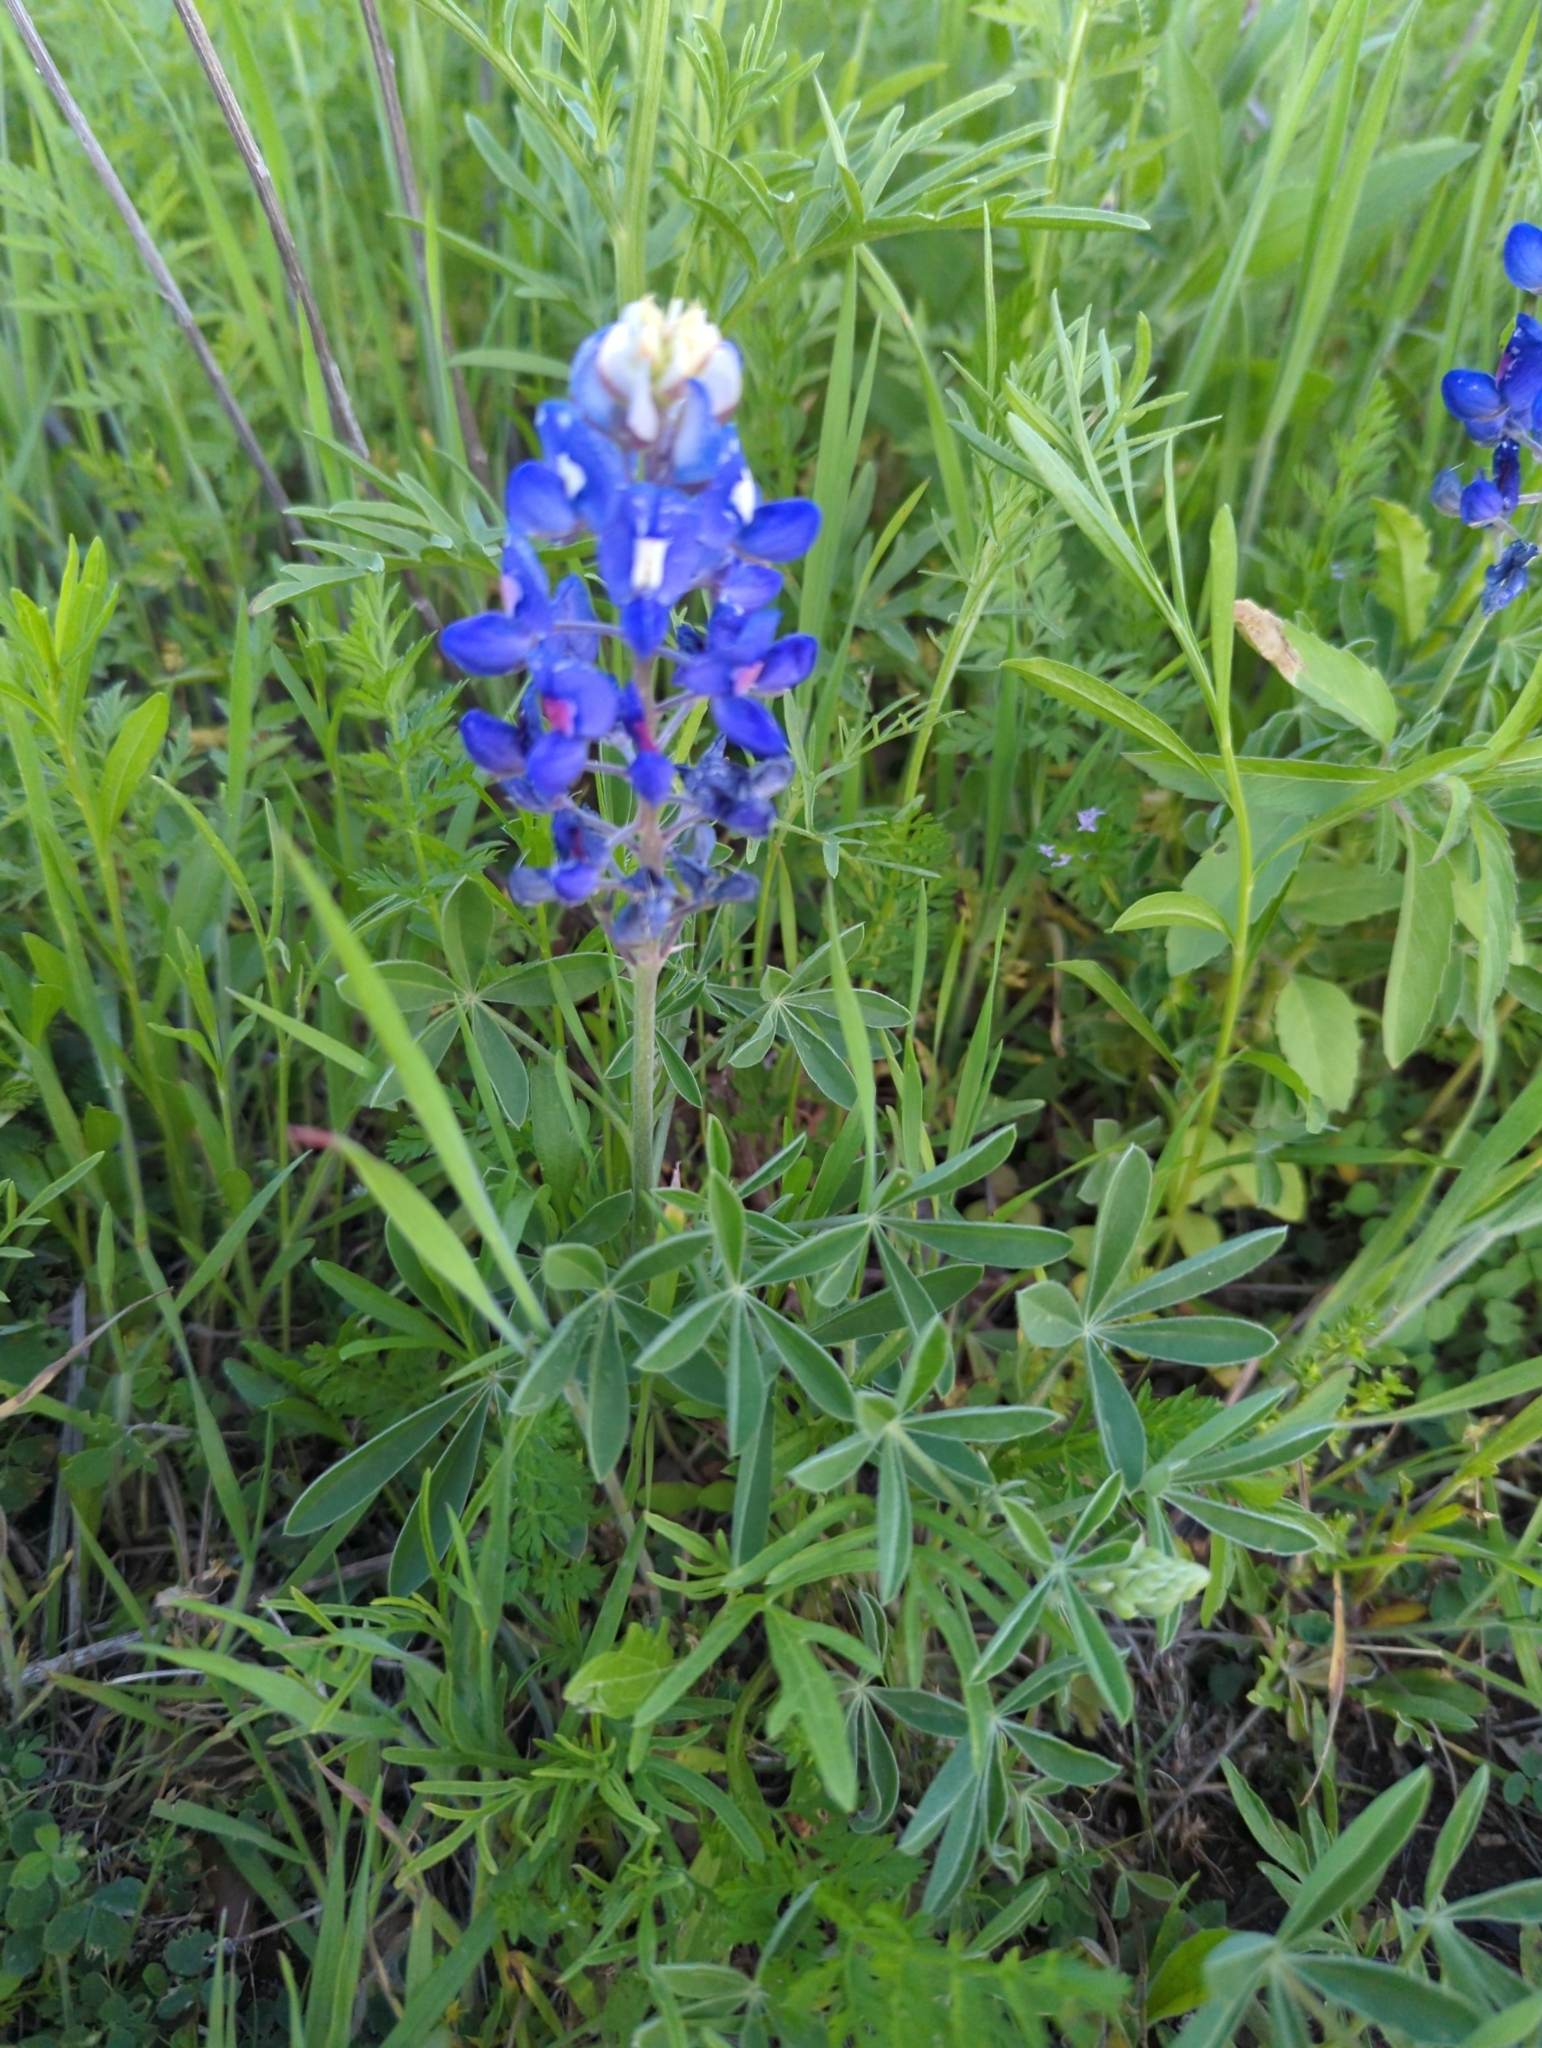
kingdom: Plantae
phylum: Tracheophyta
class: Magnoliopsida
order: Fabales
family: Fabaceae
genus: Lupinus
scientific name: Lupinus texensis
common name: Texas bluebonnet
